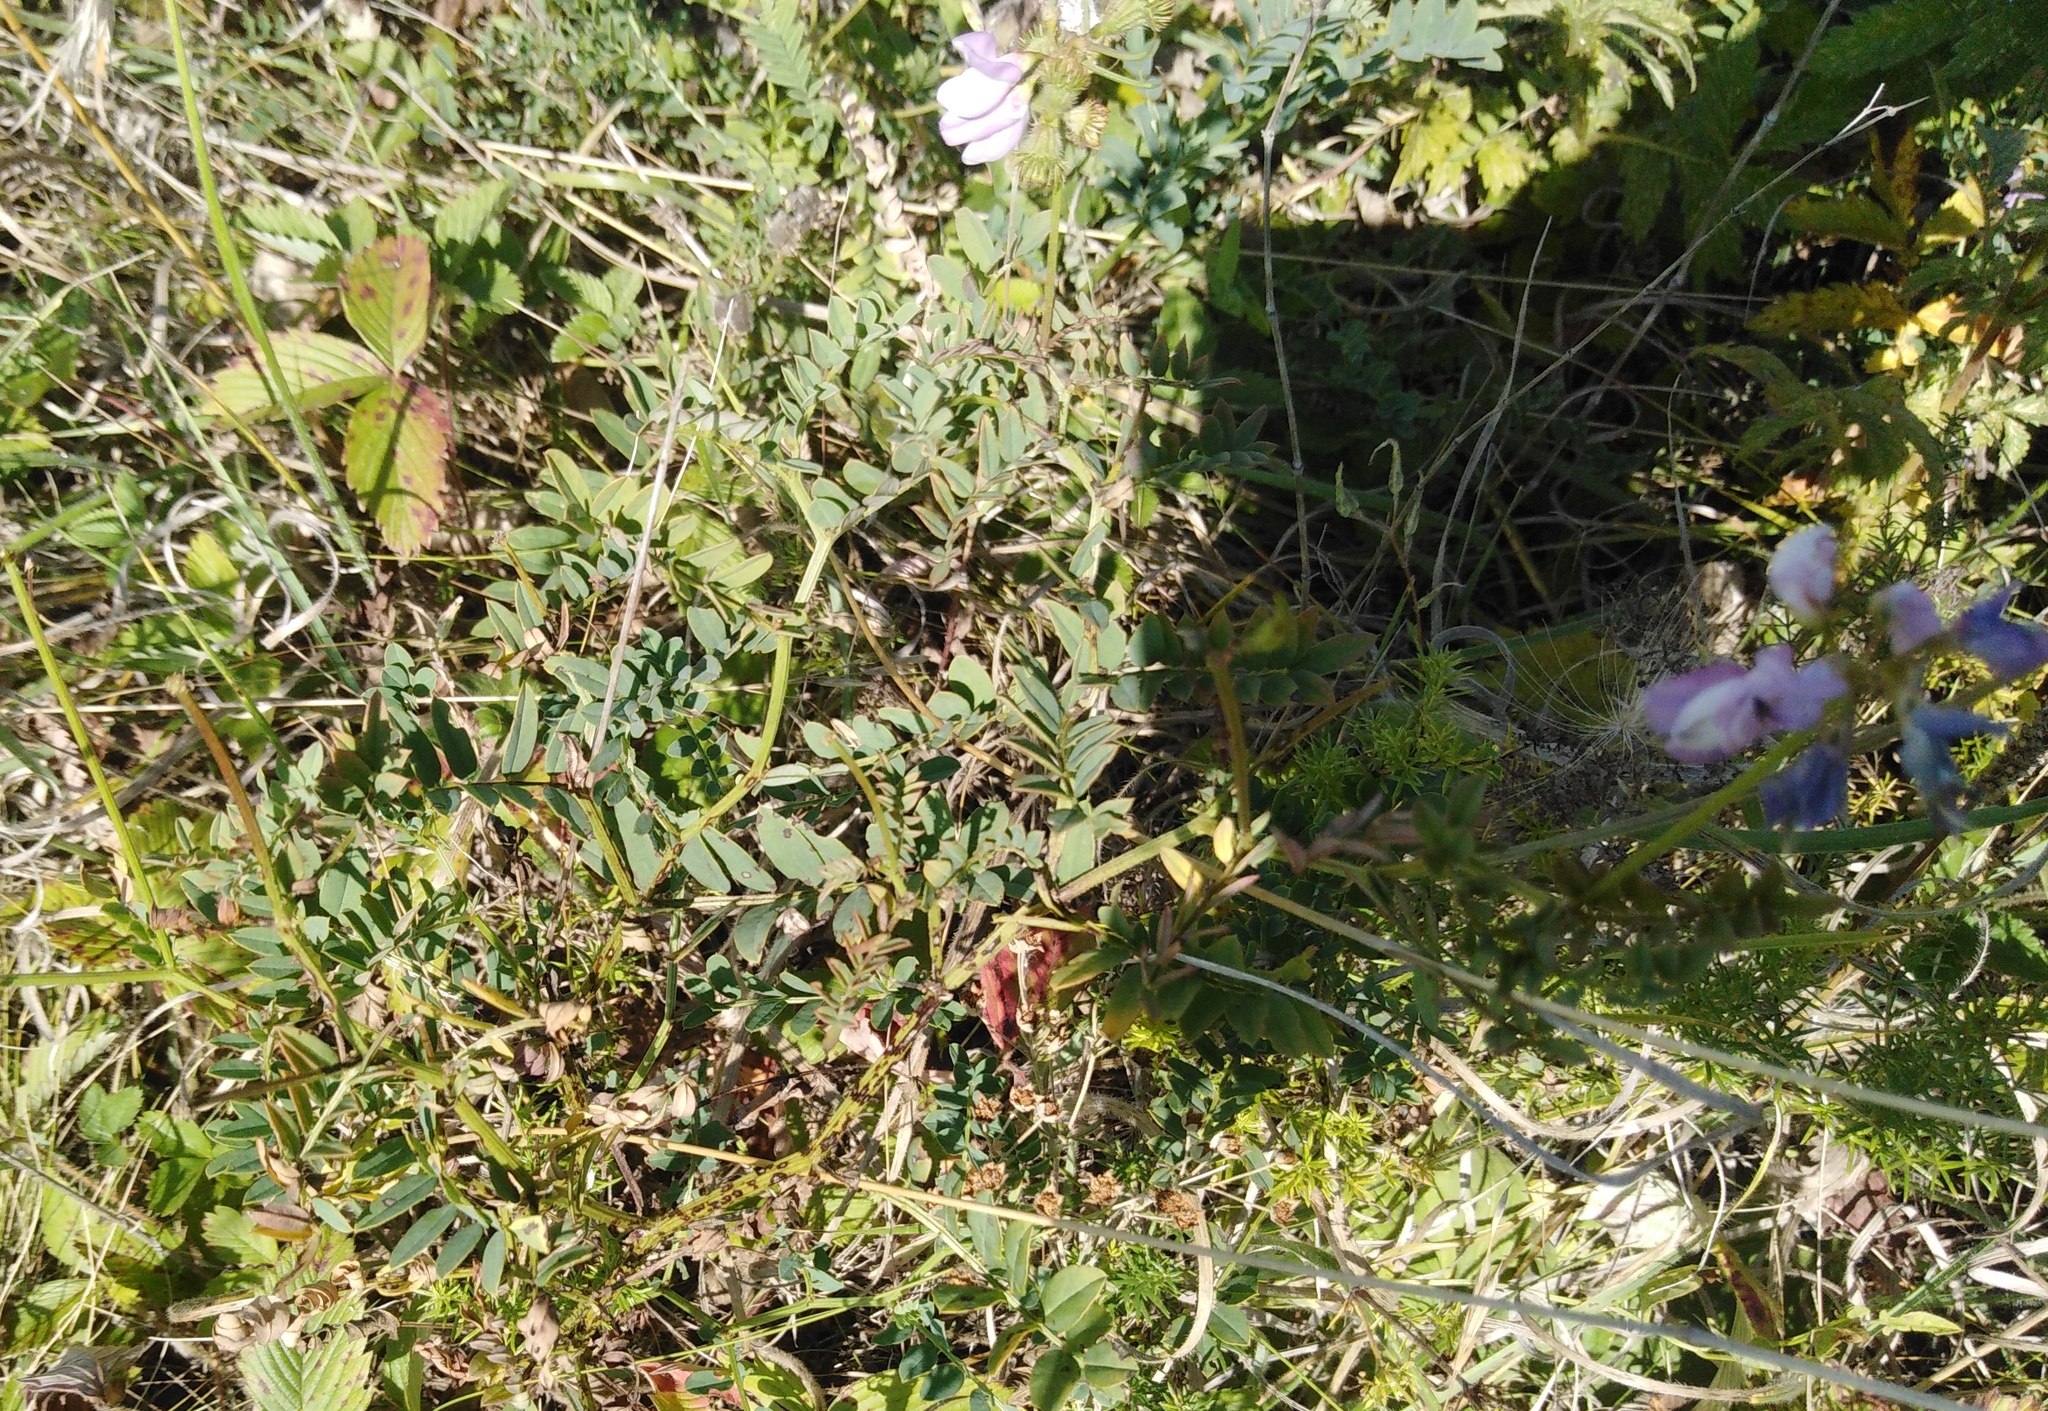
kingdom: Plantae
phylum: Tracheophyta
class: Magnoliopsida
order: Fabales
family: Fabaceae
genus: Coronilla
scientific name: Coronilla varia
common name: Crownvetch
